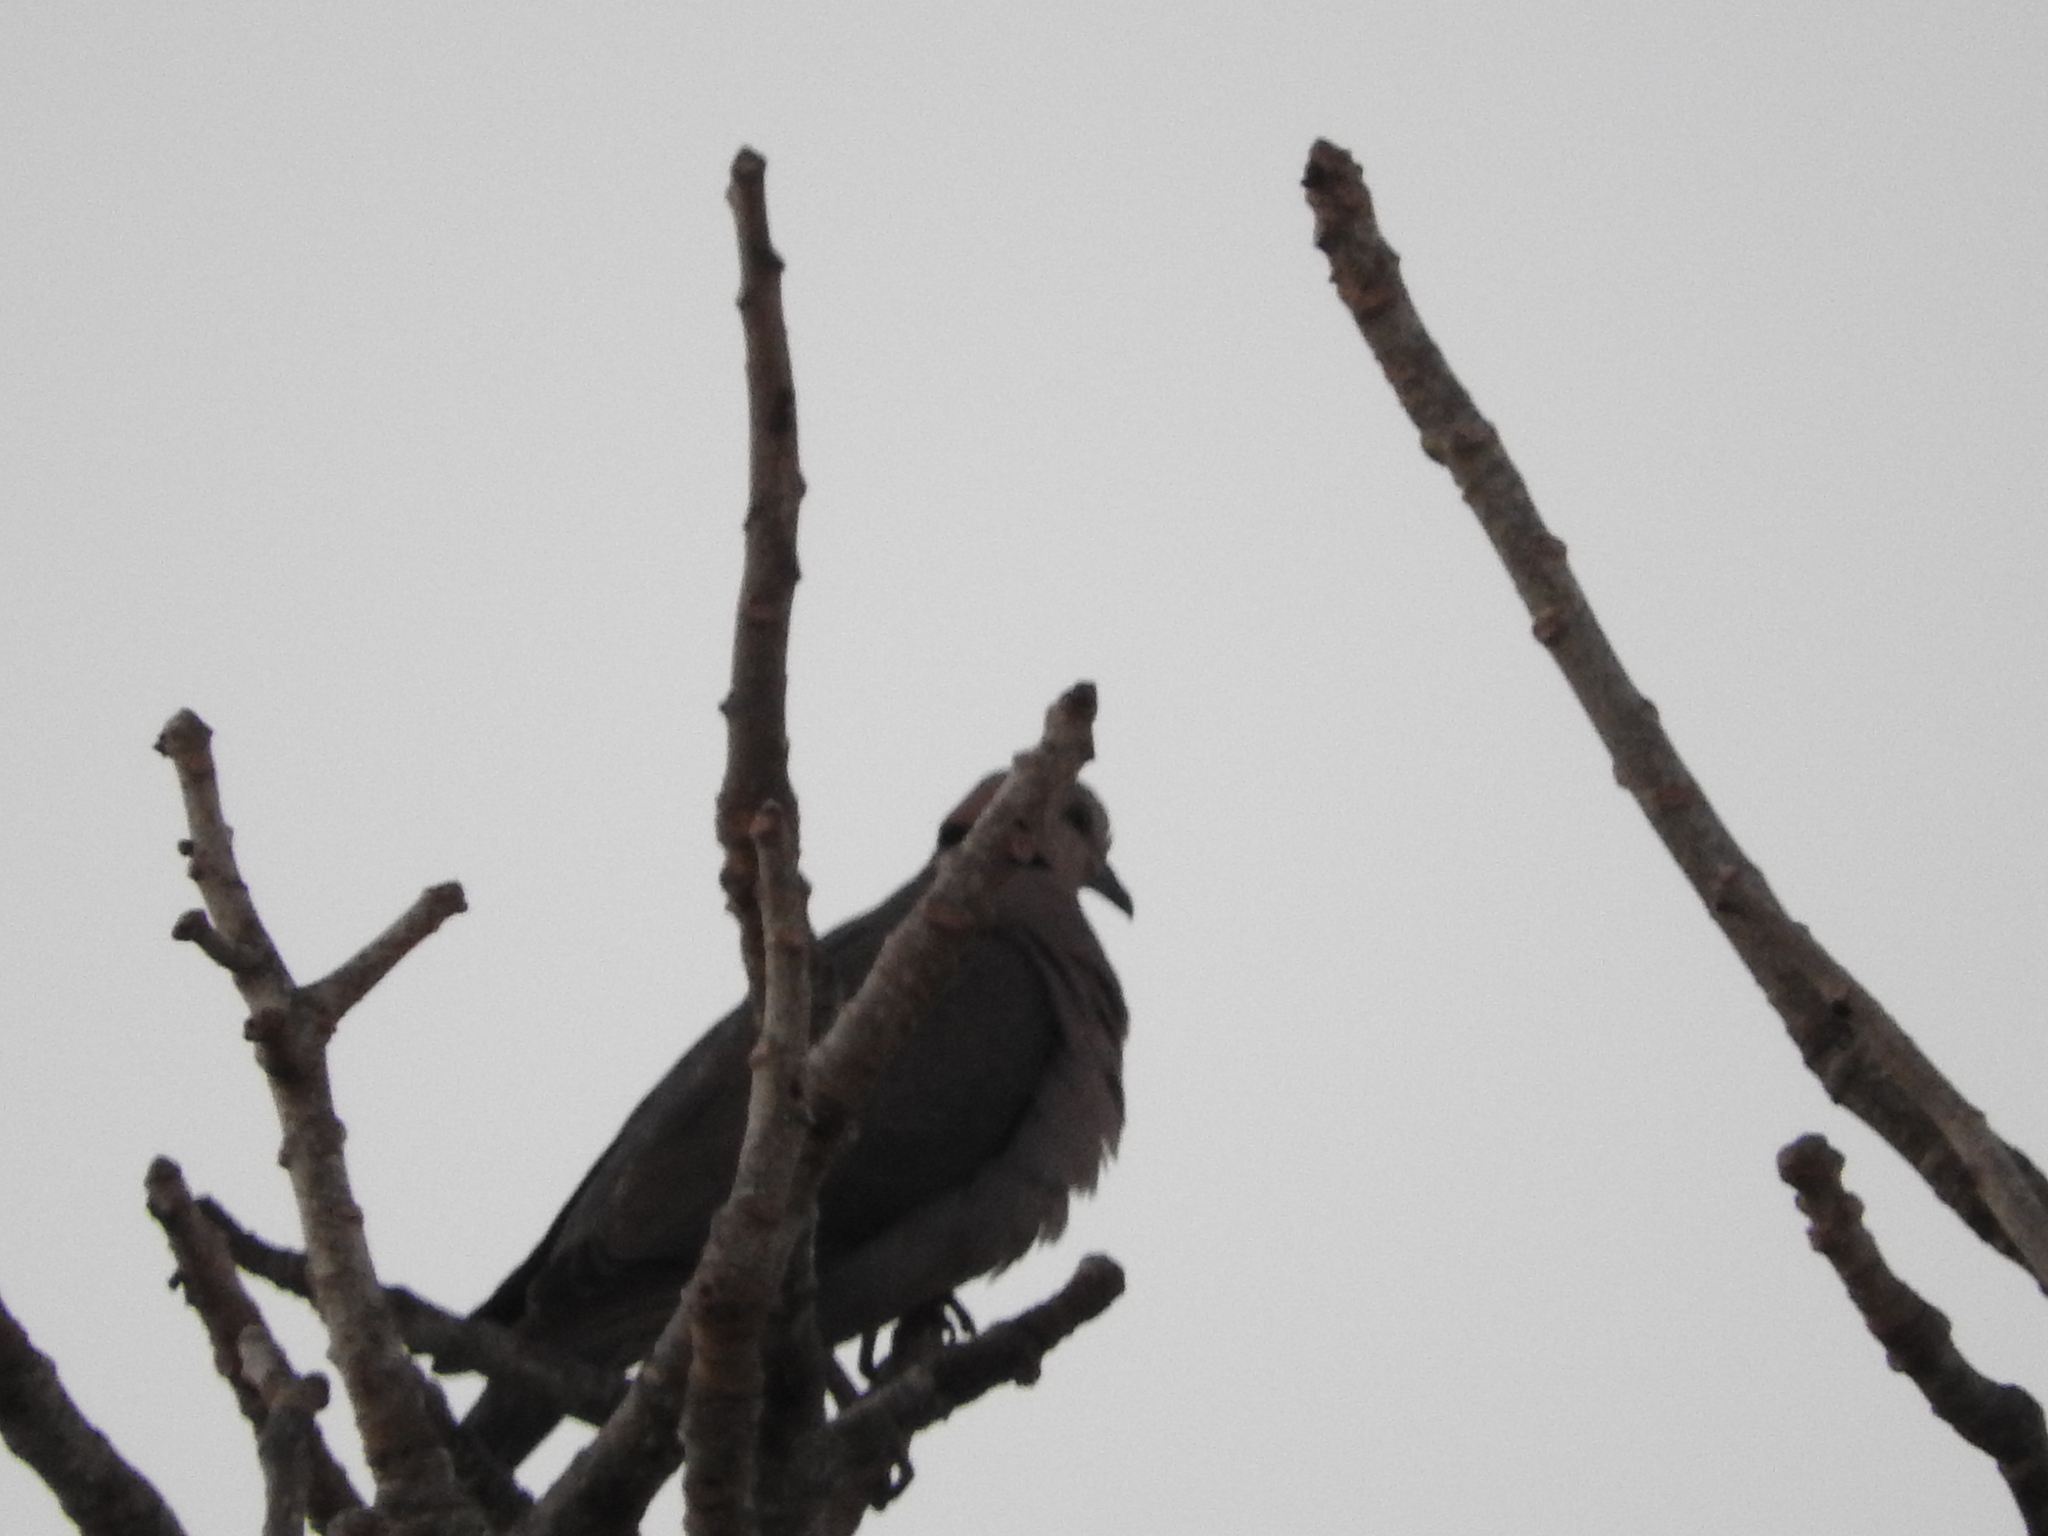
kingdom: Animalia
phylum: Chordata
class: Aves
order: Columbiformes
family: Columbidae
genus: Streptopelia
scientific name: Streptopelia semitorquata
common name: Red-eyed dove
